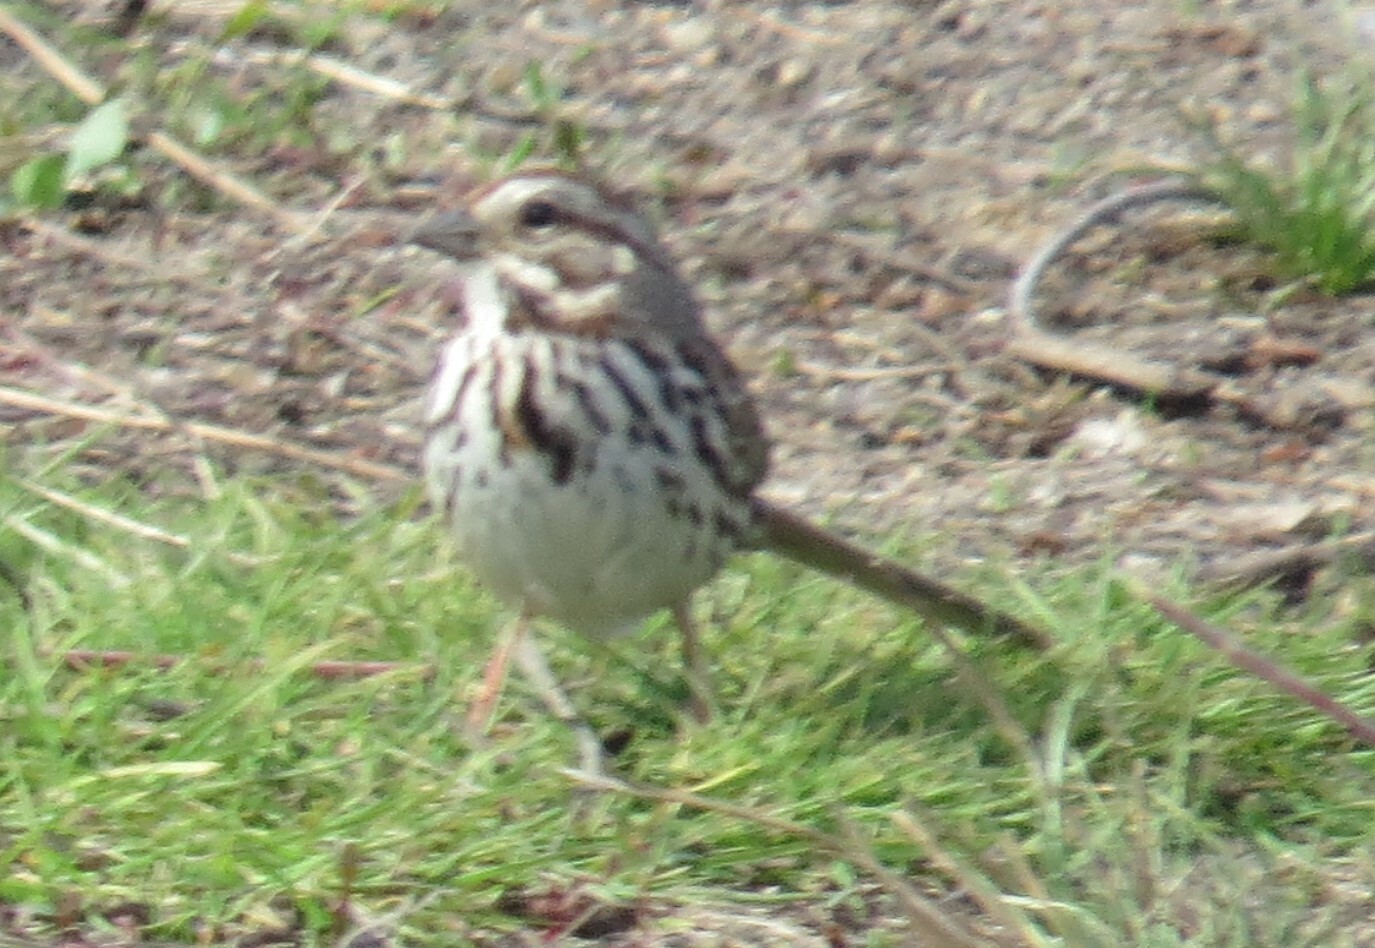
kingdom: Animalia
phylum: Chordata
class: Aves
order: Passeriformes
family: Passerellidae
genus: Melospiza
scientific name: Melospiza melodia
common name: Song sparrow
